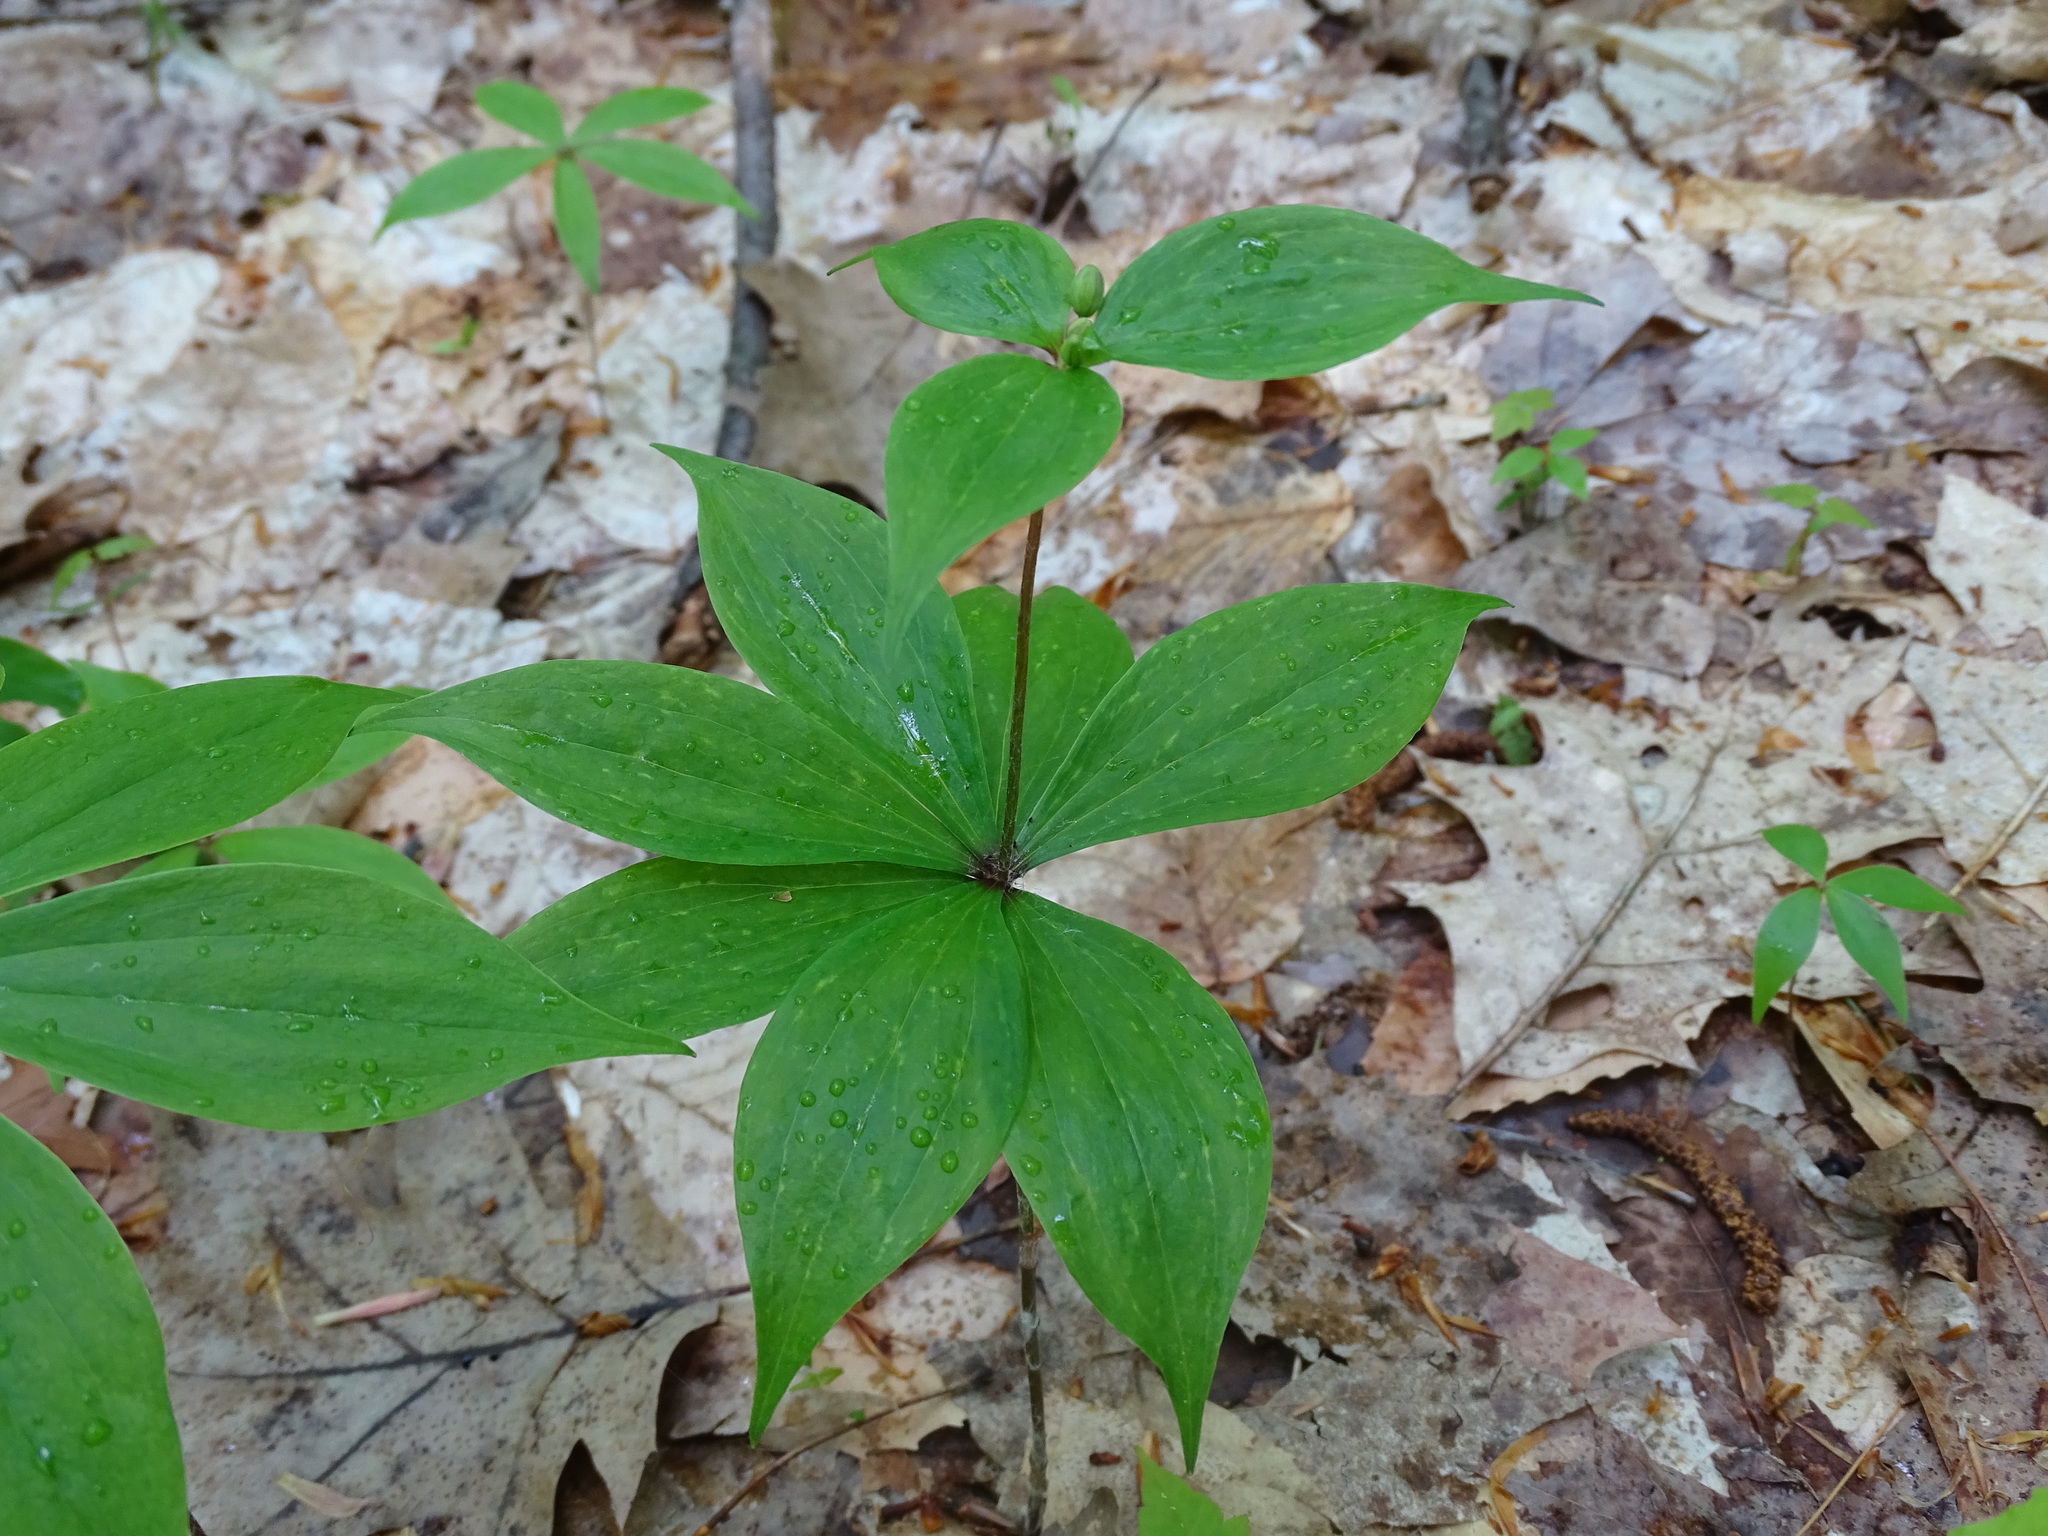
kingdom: Plantae
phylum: Tracheophyta
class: Liliopsida
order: Liliales
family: Liliaceae
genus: Medeola
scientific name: Medeola virginiana
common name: Indian cucumber-root
